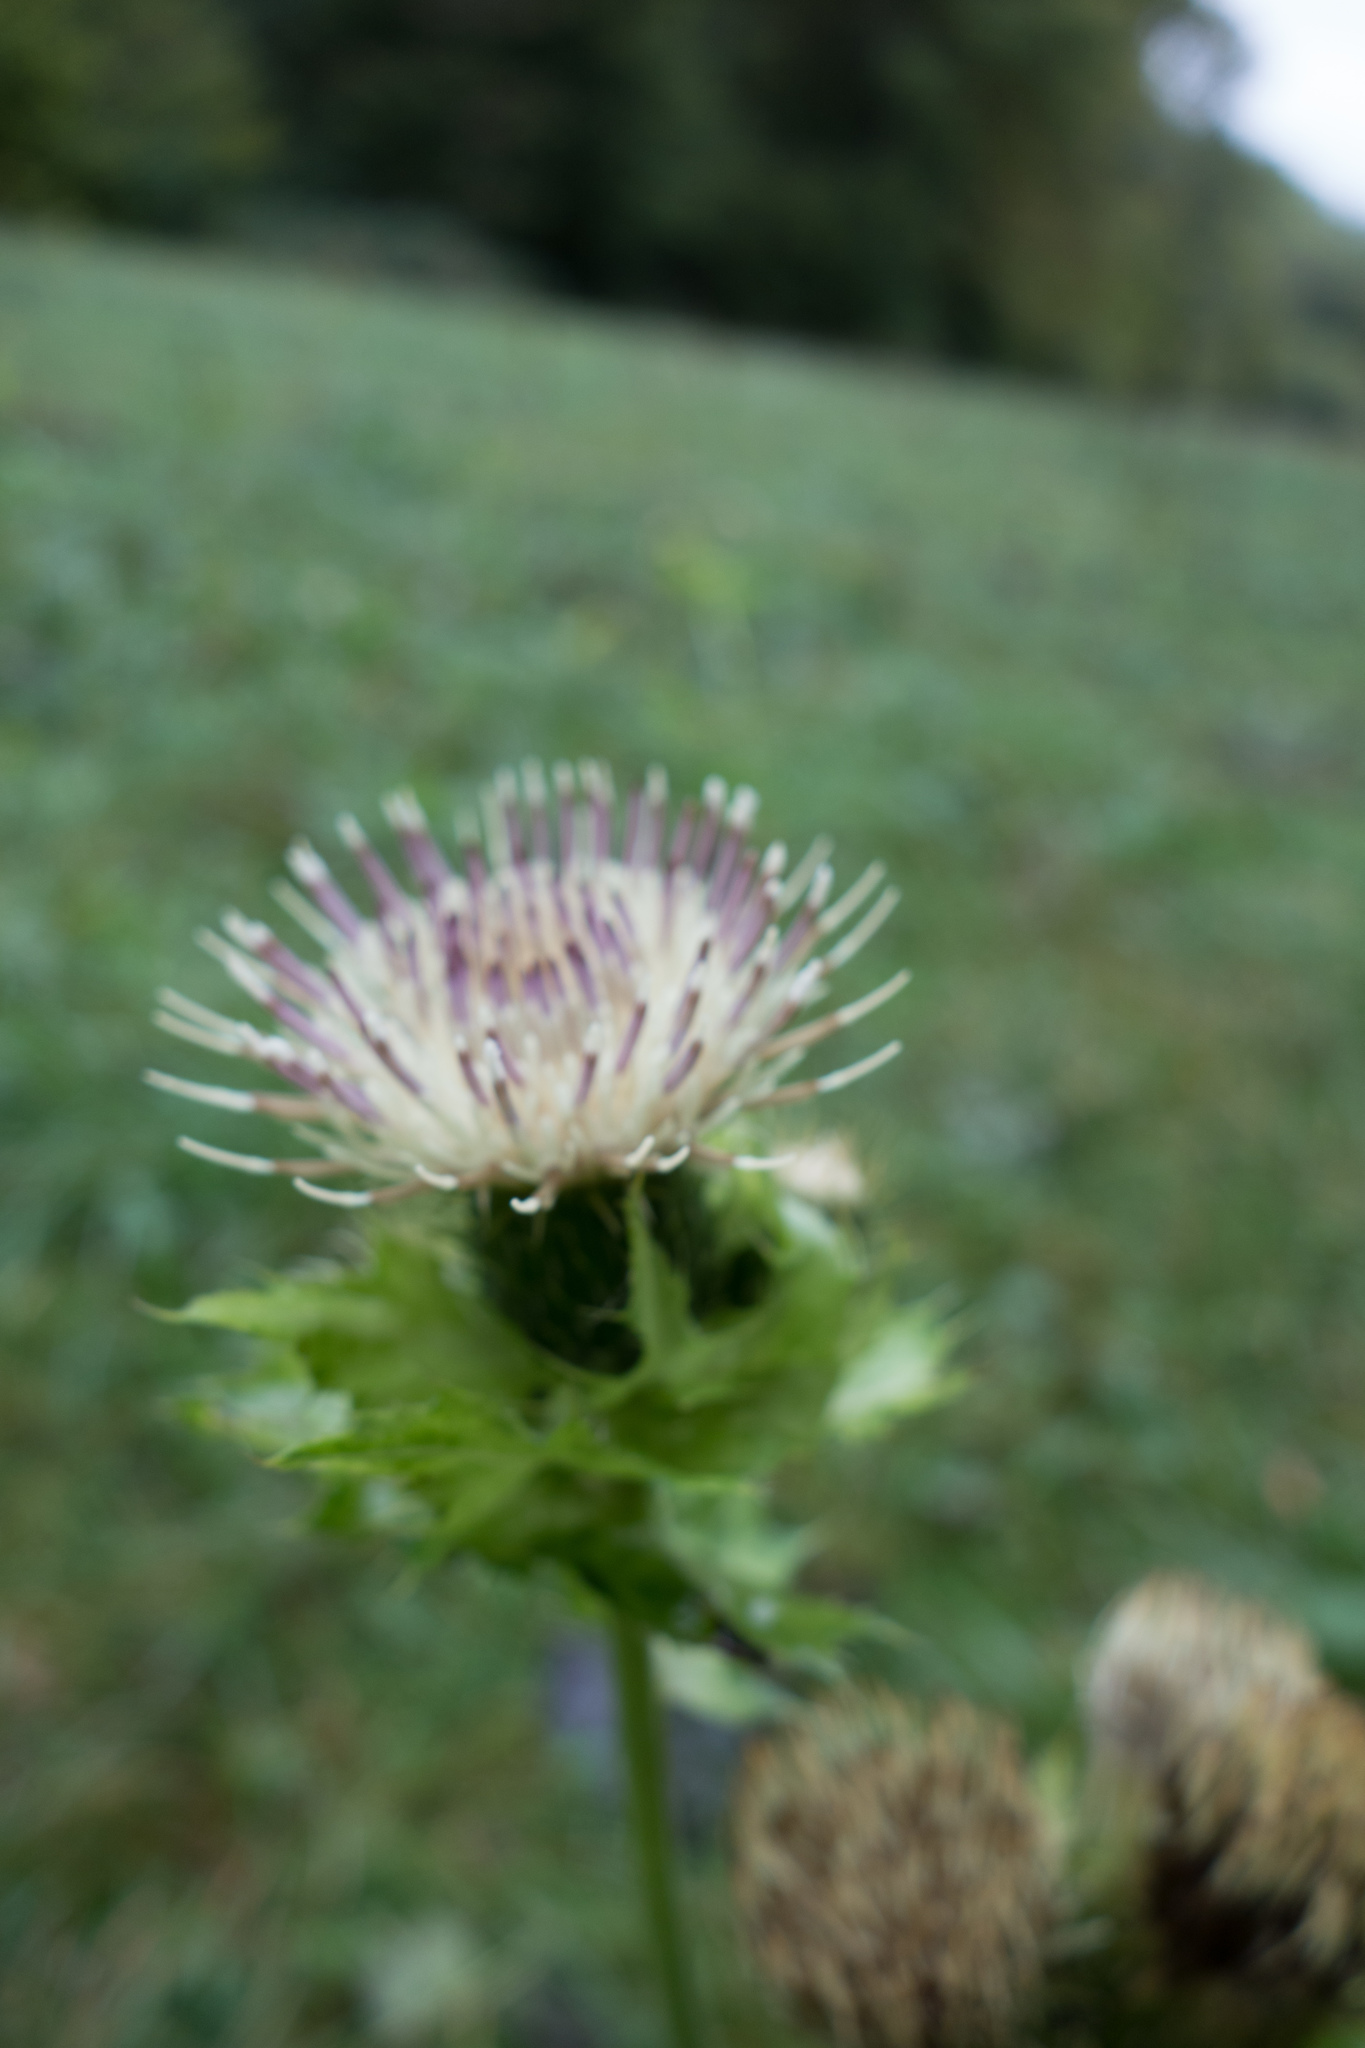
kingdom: Plantae
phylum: Tracheophyta
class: Magnoliopsida
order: Asterales
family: Asteraceae
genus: Cirsium
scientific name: Cirsium oleraceum
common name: Cabbage thistle
